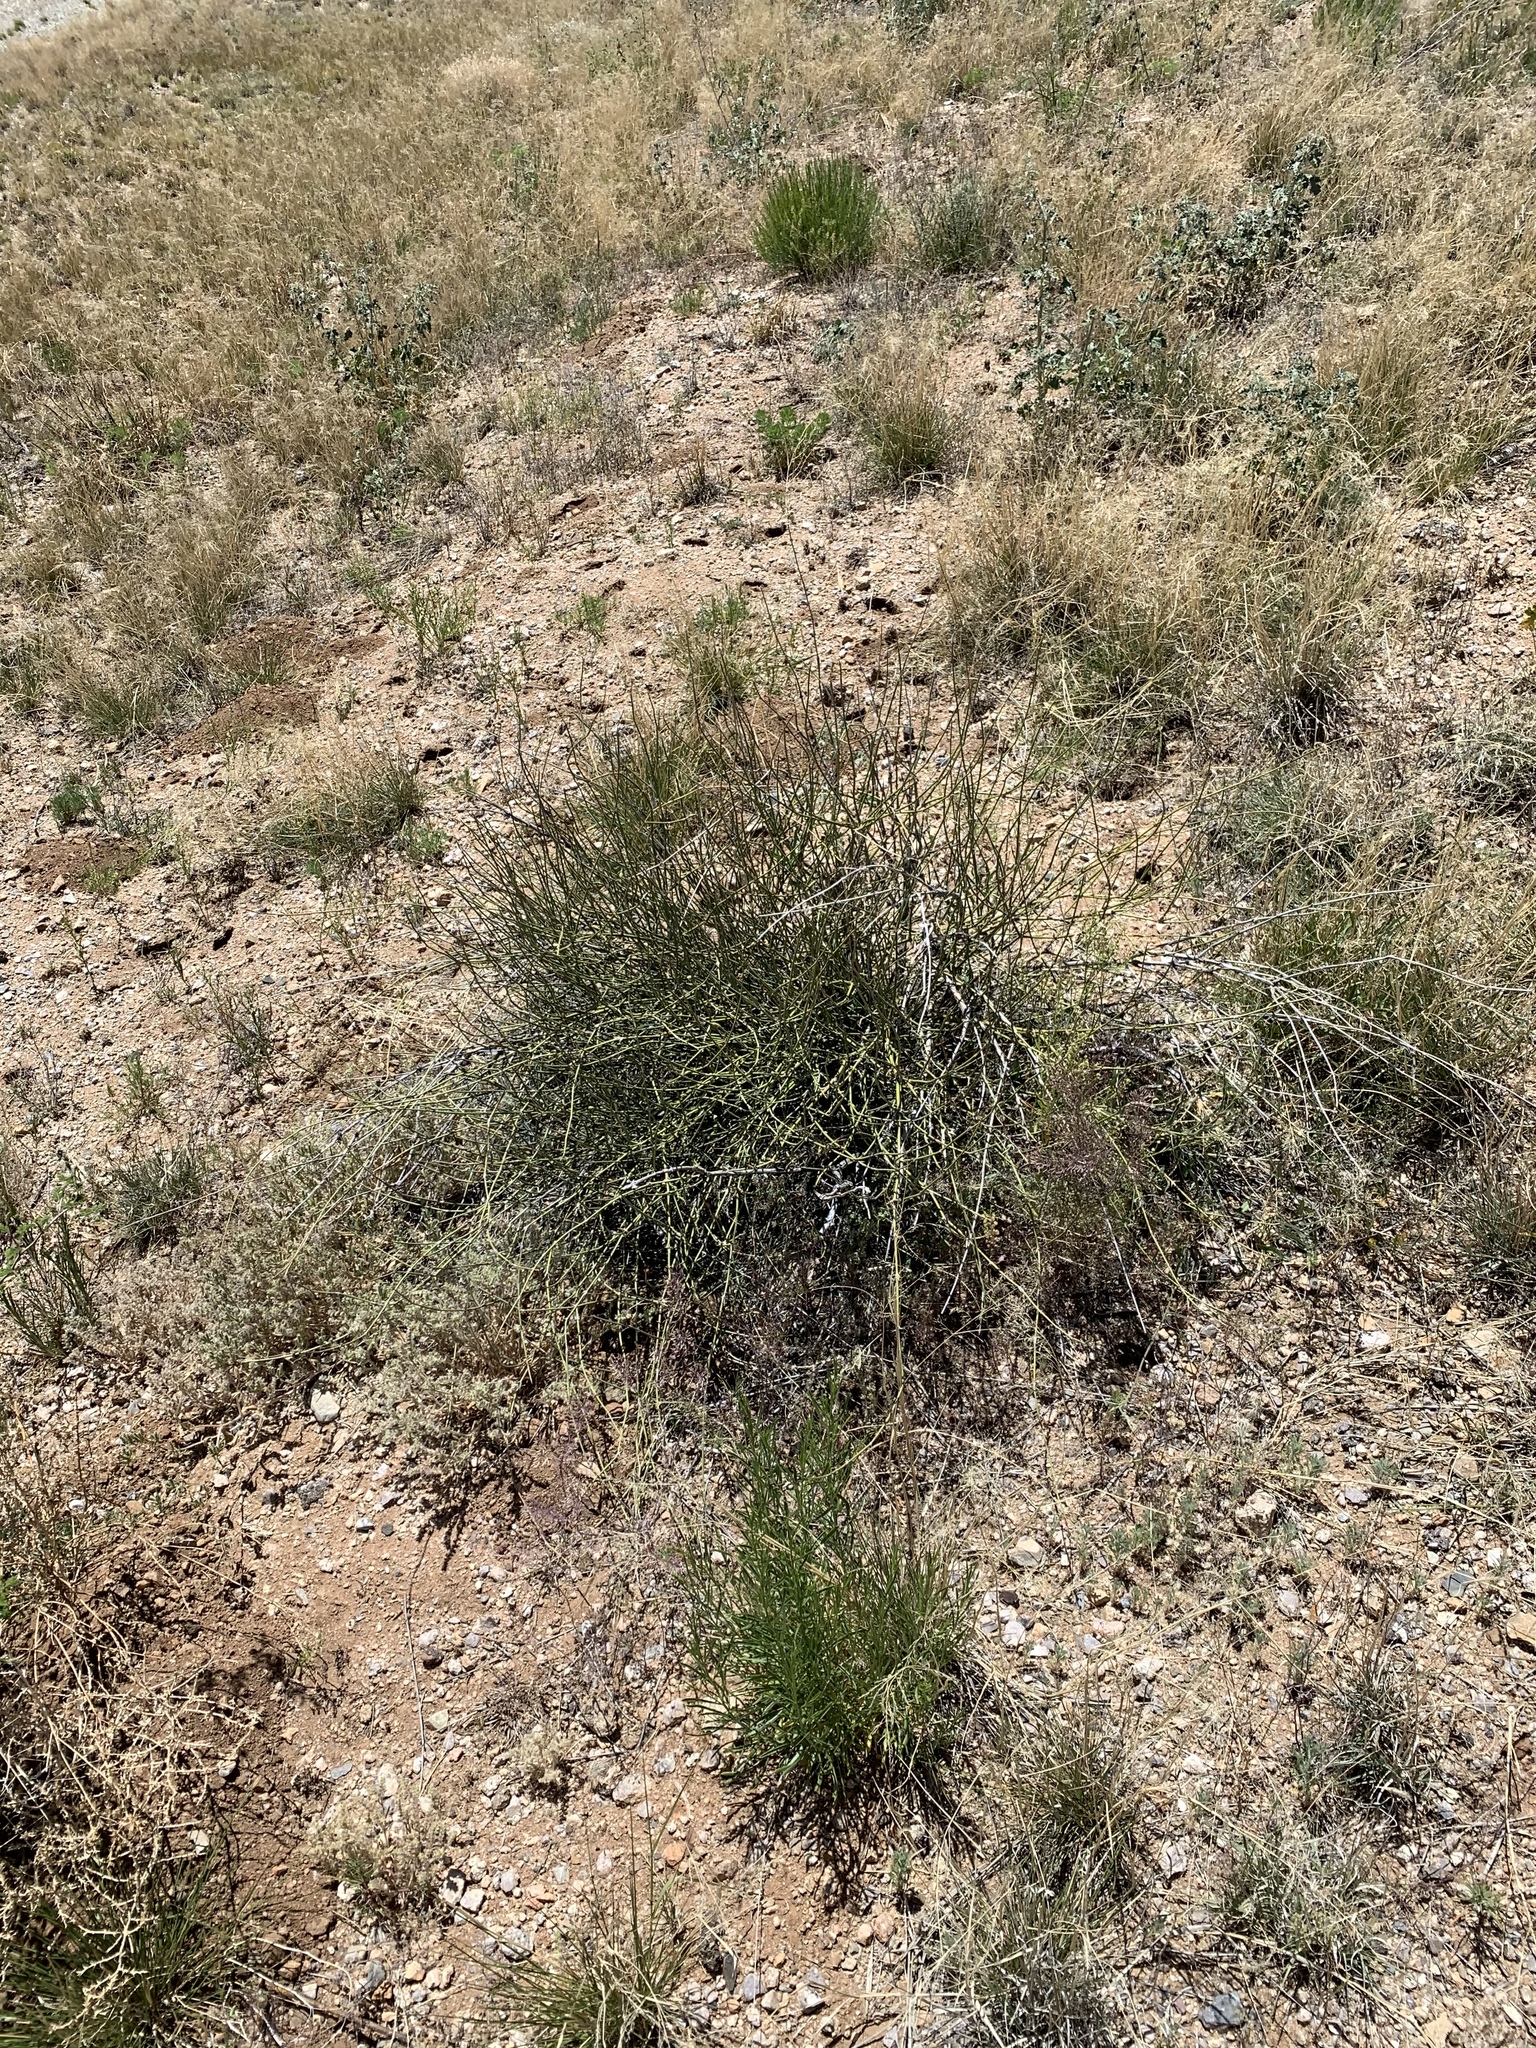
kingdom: Plantae
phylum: Tracheophyta
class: Gnetopsida
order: Ephedrales
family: Ephedraceae
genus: Ephedra
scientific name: Ephedra trifurca
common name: Mexican-tea
